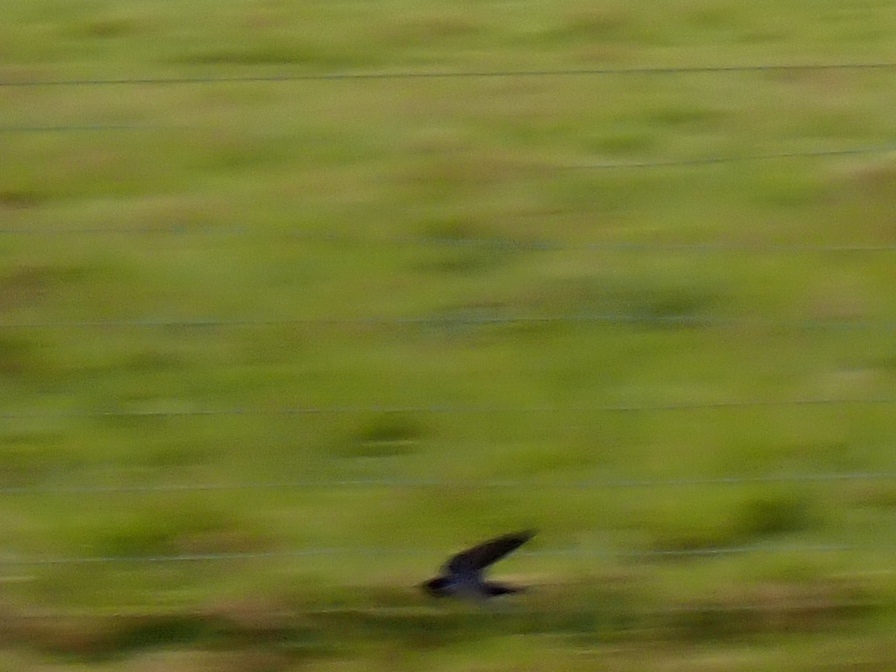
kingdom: Animalia
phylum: Chordata
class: Aves
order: Passeriformes
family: Hirundinidae
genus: Hirundo
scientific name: Hirundo rustica
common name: Barn swallow
